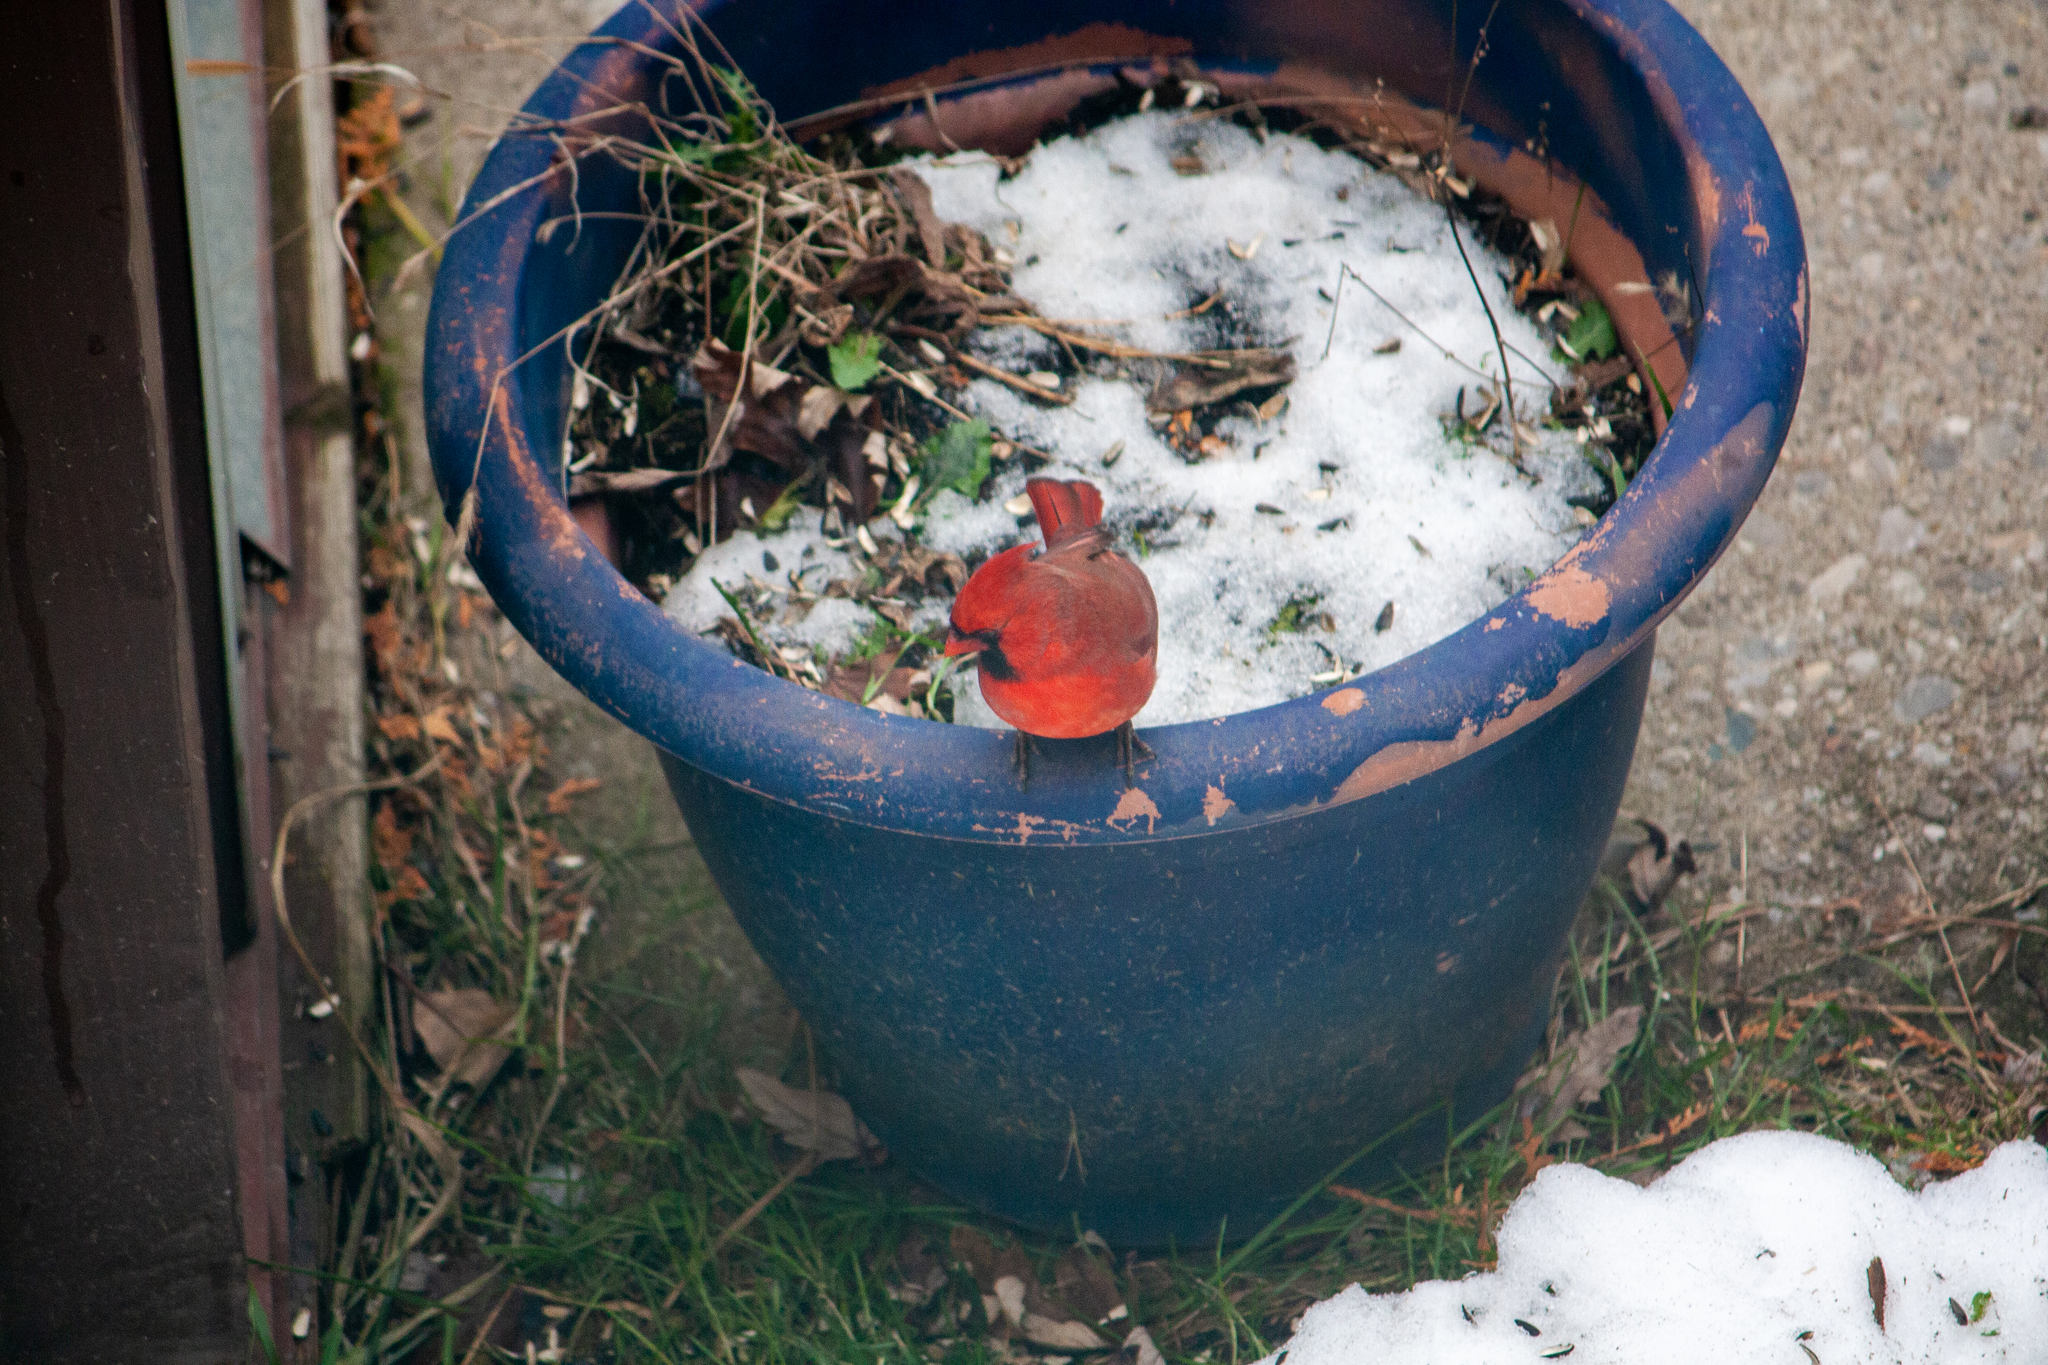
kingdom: Animalia
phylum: Chordata
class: Aves
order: Passeriformes
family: Cardinalidae
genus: Cardinalis
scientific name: Cardinalis cardinalis
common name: Northern cardinal
